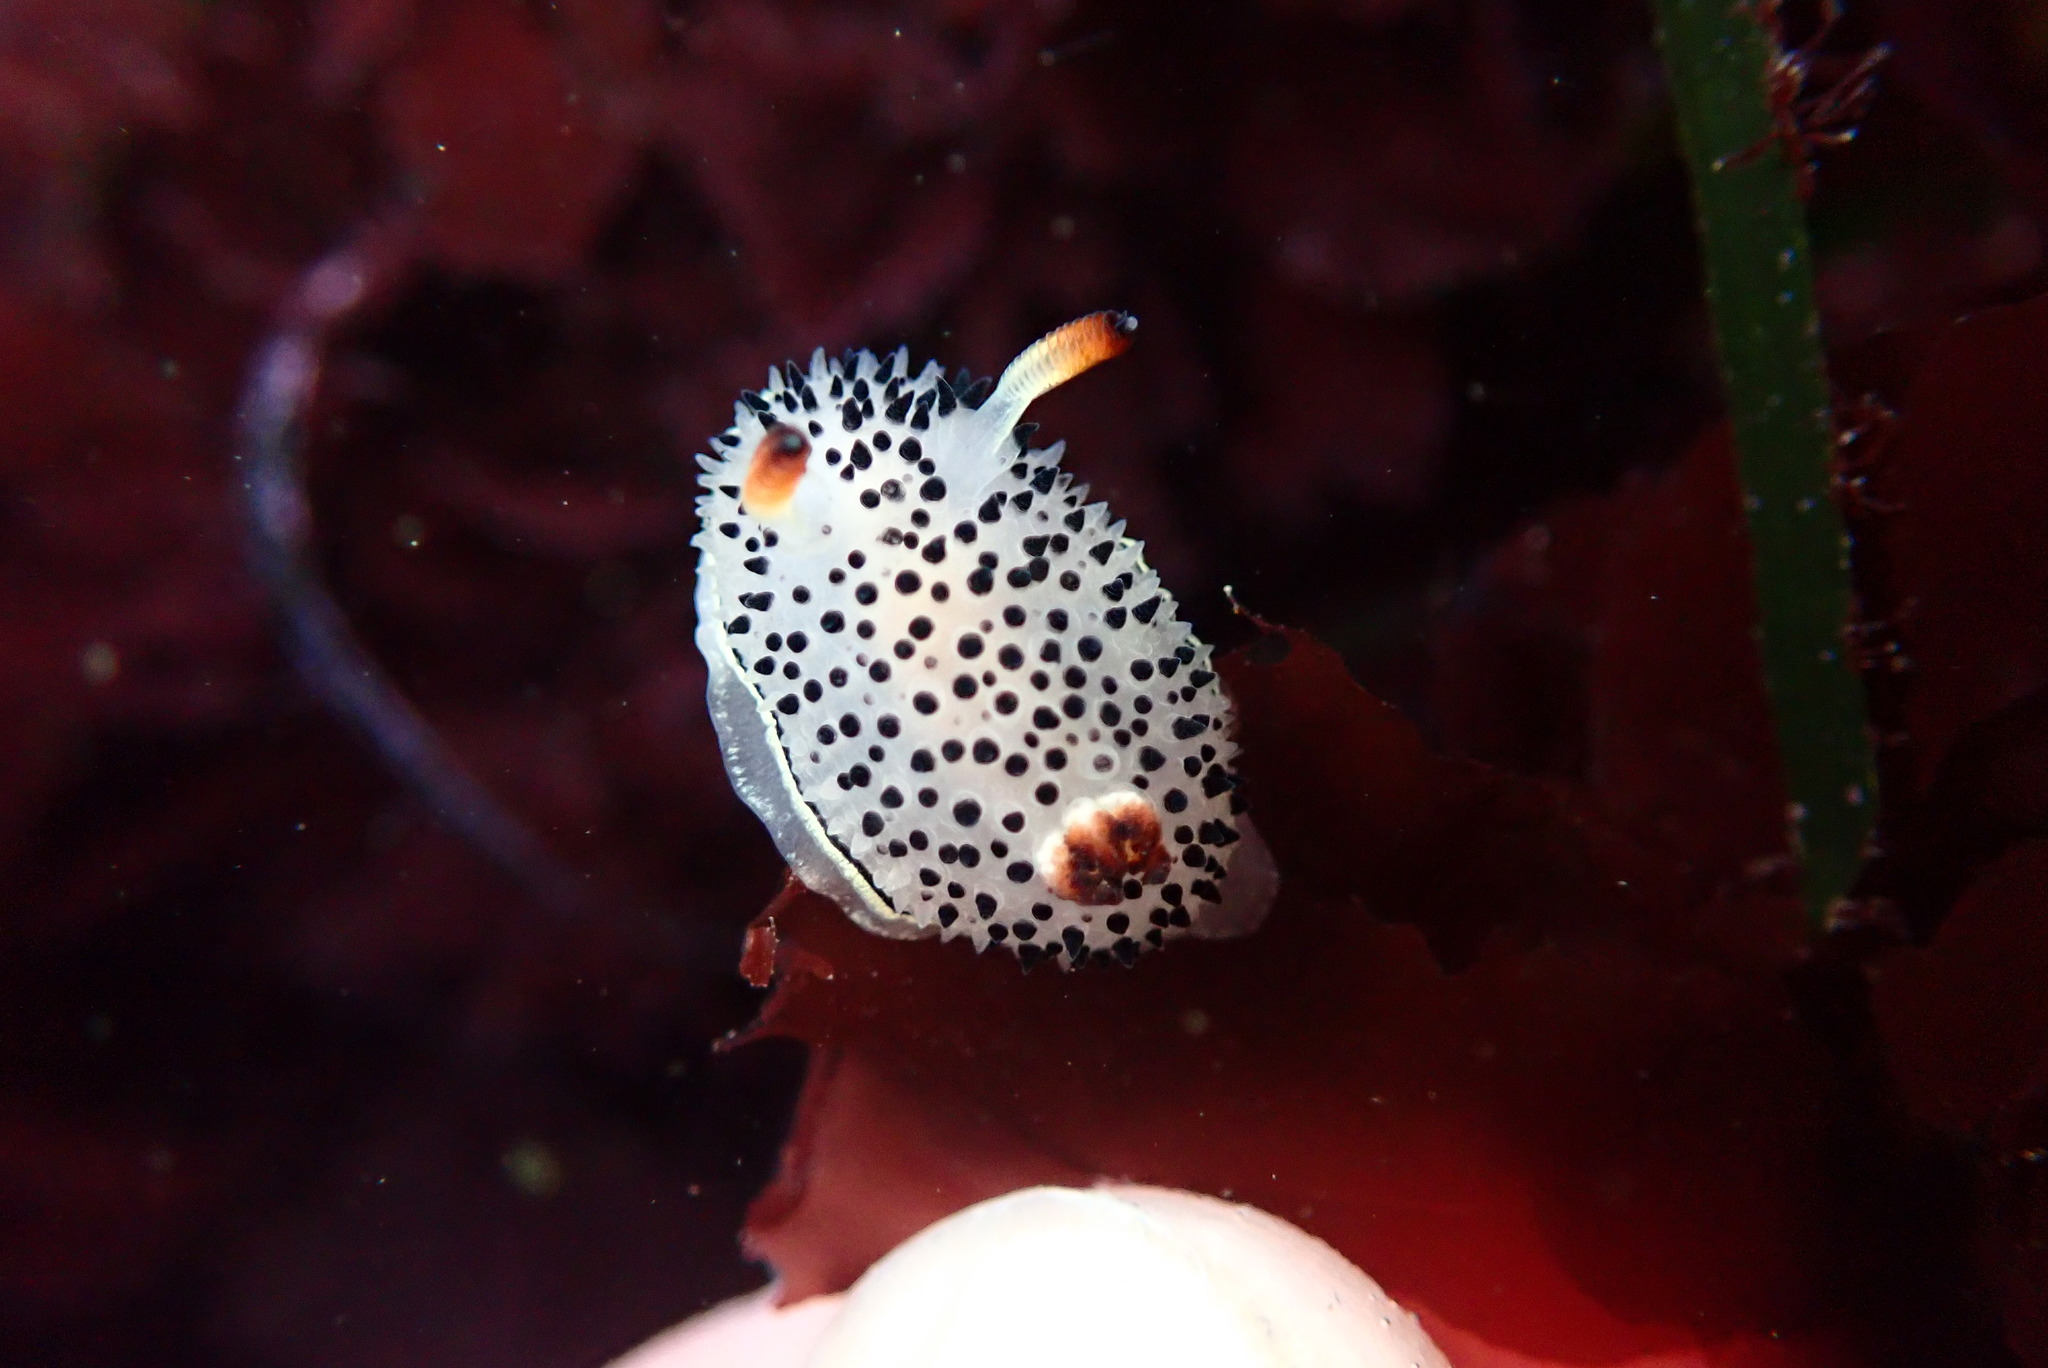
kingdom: Animalia
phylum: Mollusca
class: Gastropoda
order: Nudibranchia
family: Onchidorididae
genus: Acanthodoris
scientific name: Acanthodoris rhodoceras
